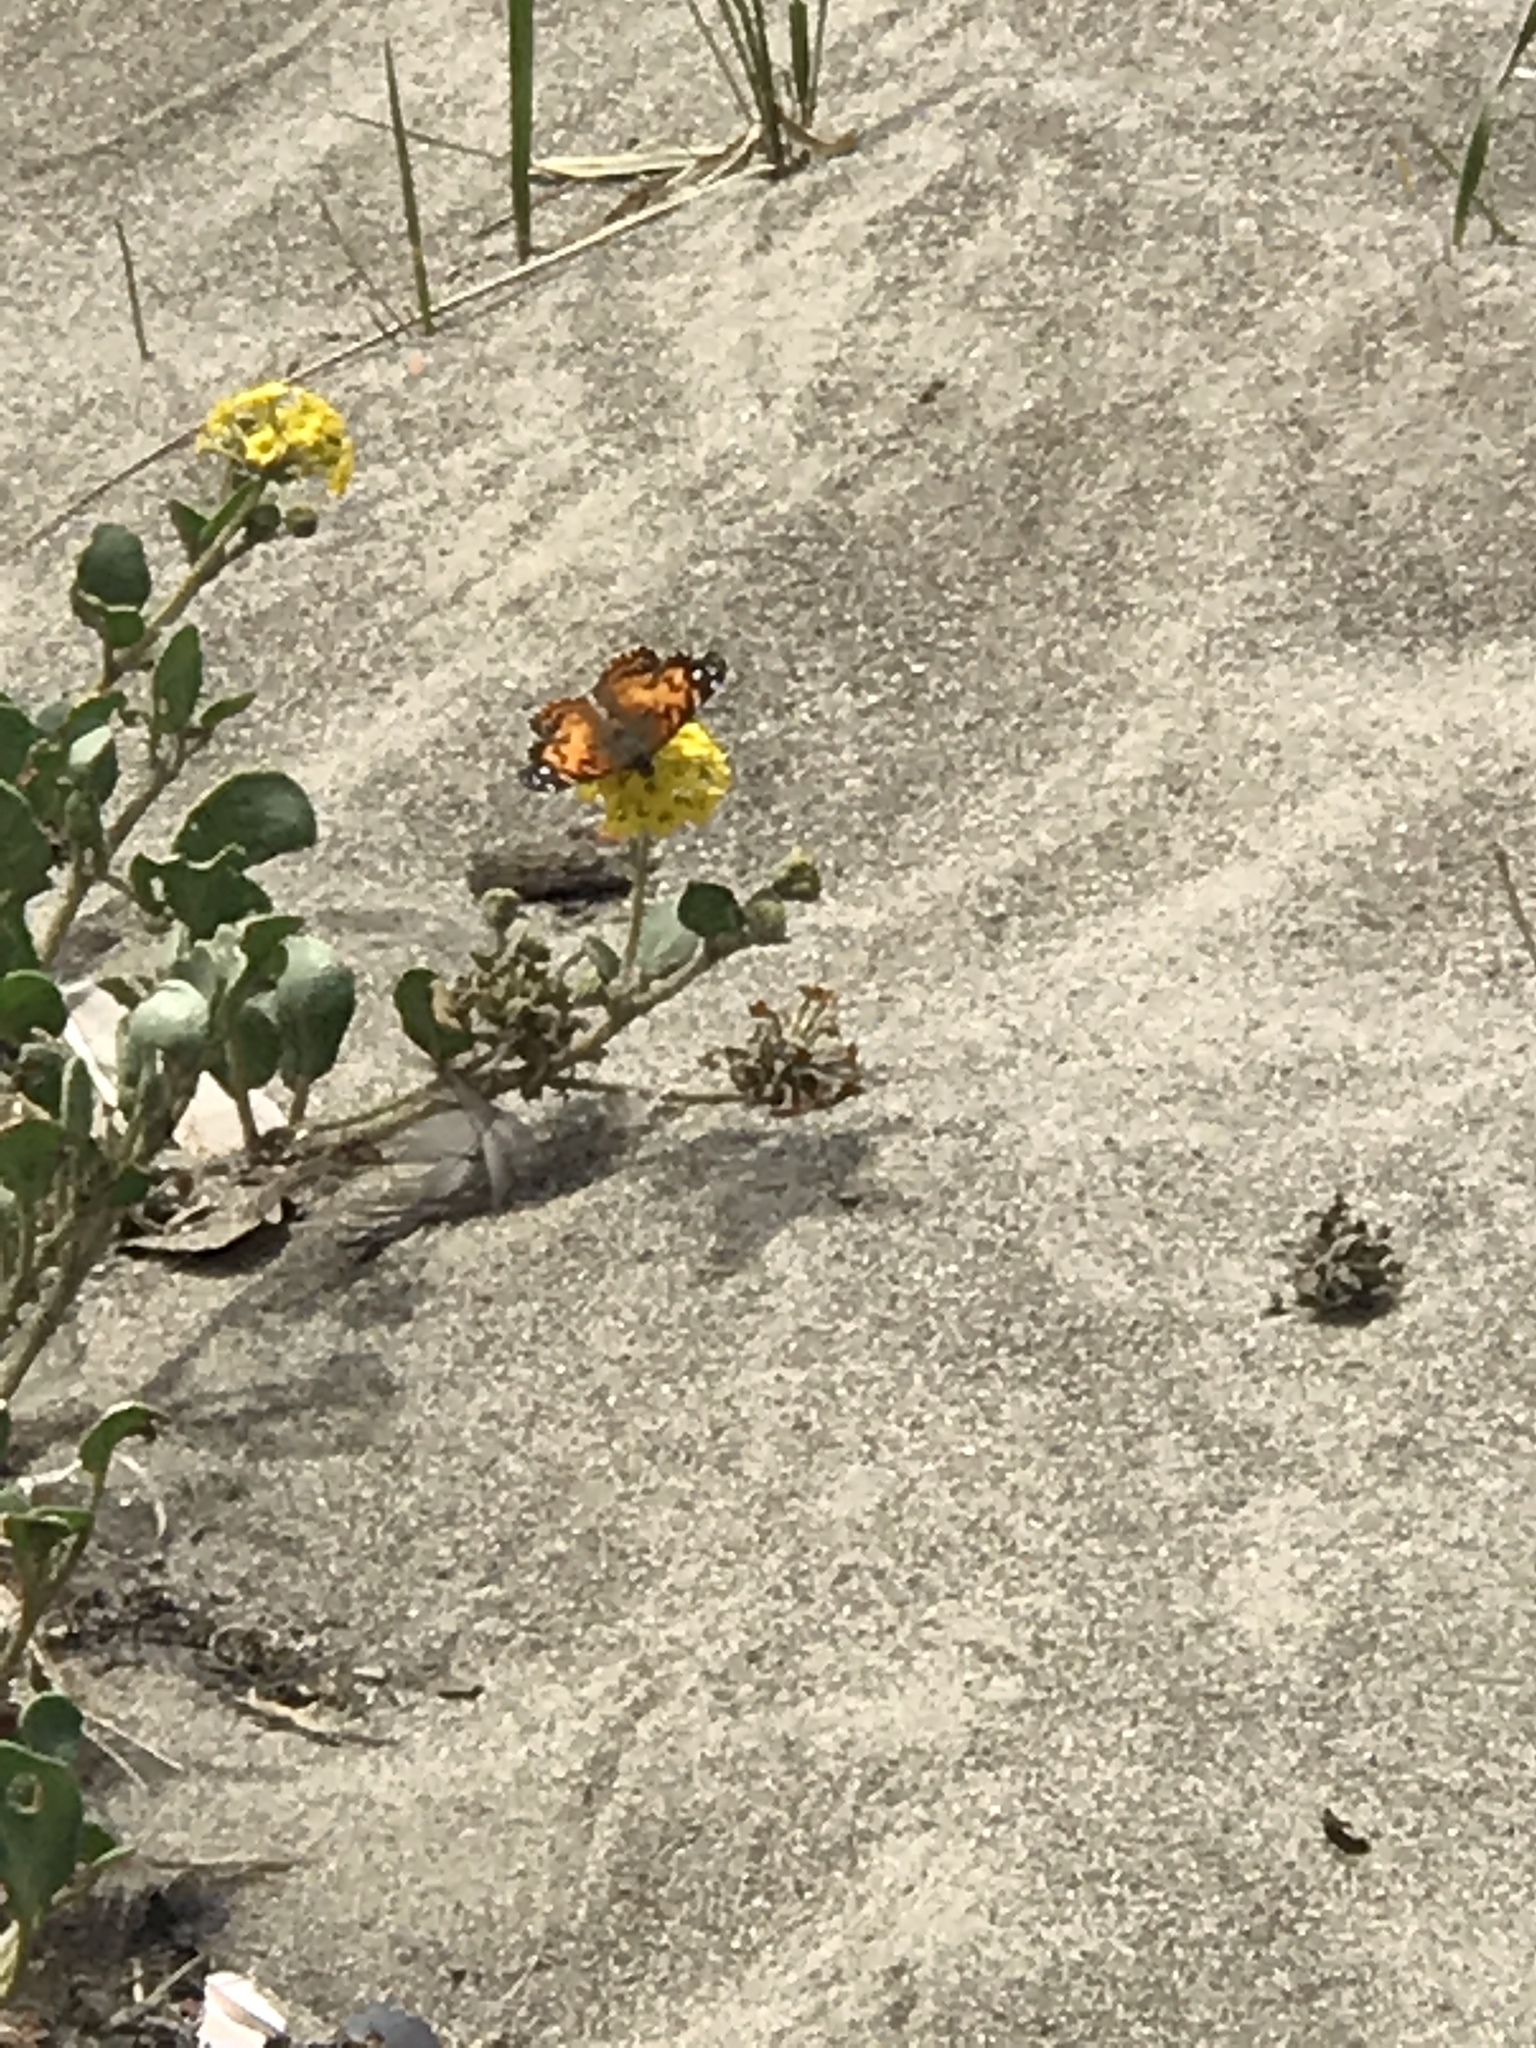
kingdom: Animalia
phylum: Arthropoda
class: Insecta
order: Lepidoptera
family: Nymphalidae
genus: Vanessa
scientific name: Vanessa virginiensis
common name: American lady
